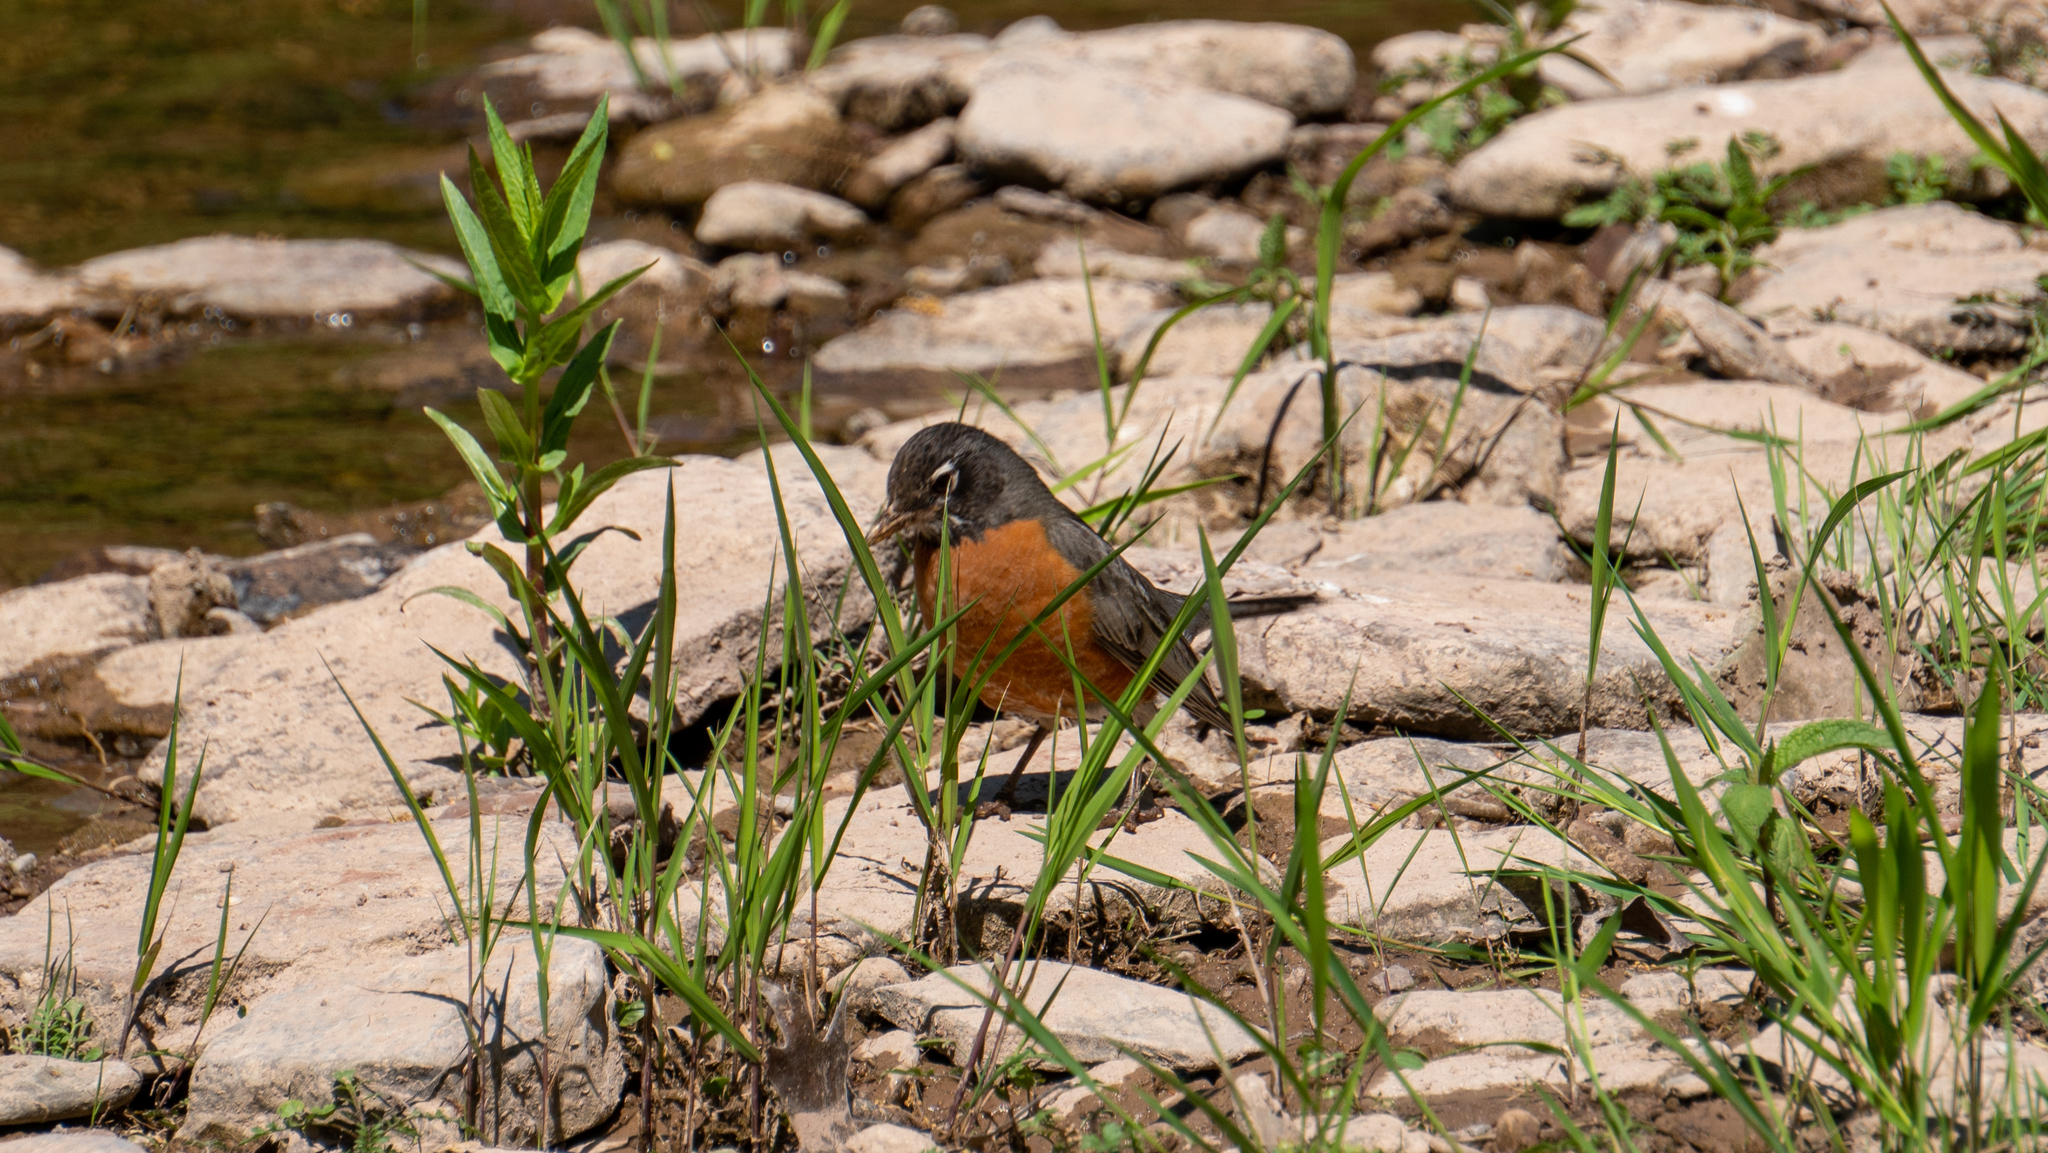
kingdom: Animalia
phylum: Chordata
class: Aves
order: Passeriformes
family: Turdidae
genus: Turdus
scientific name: Turdus migratorius
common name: American robin
